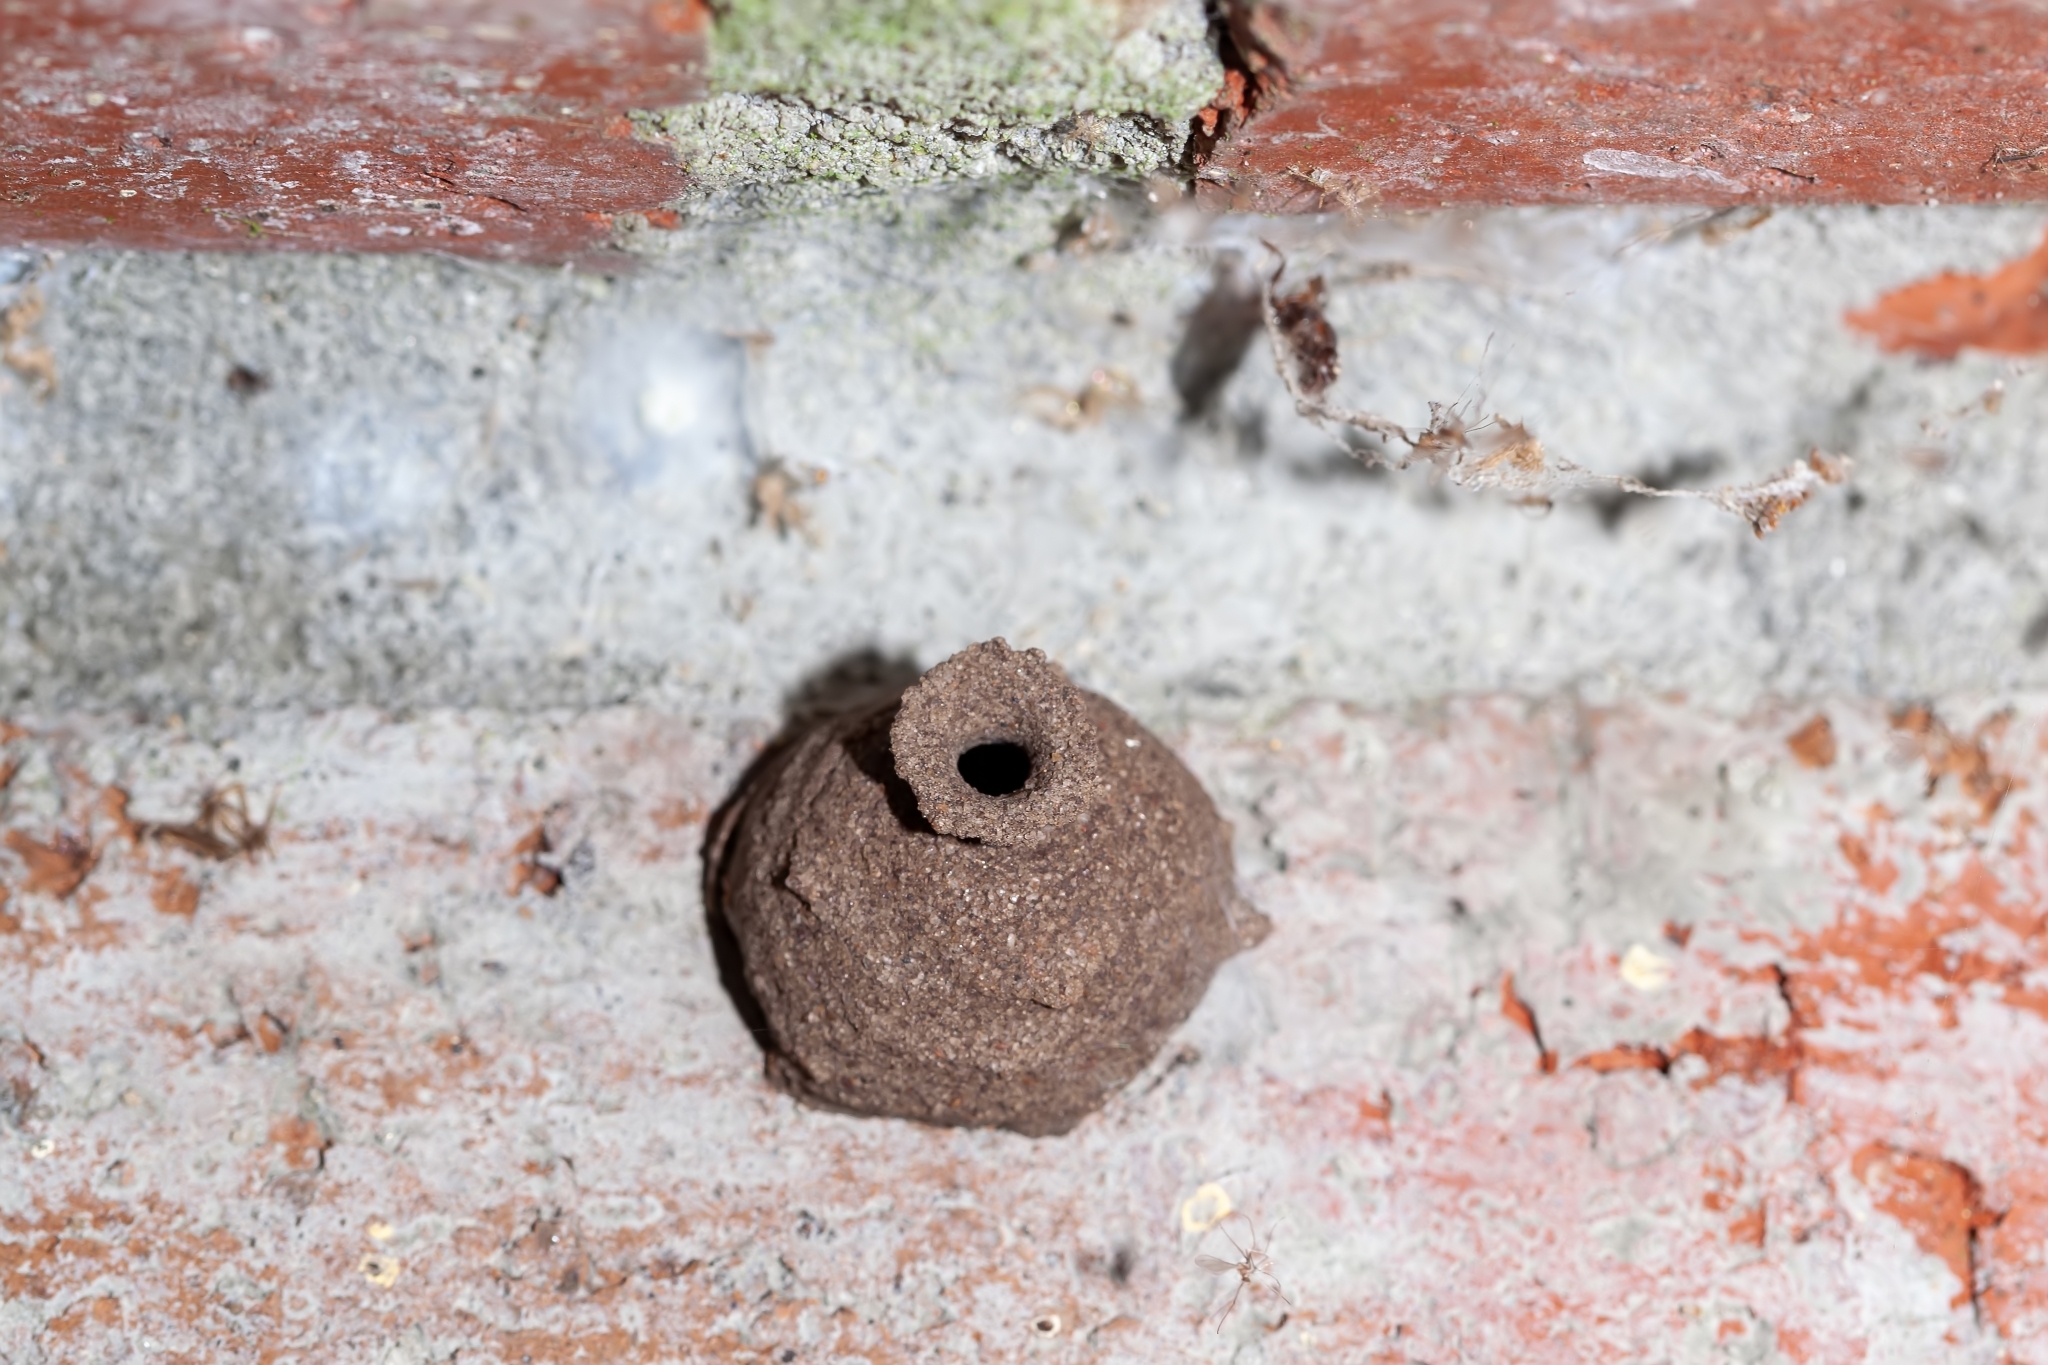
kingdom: Animalia
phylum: Arthropoda
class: Insecta
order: Hymenoptera
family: Vespidae
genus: Eumenes
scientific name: Eumenes fraternus
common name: Fraternal potter wasp
